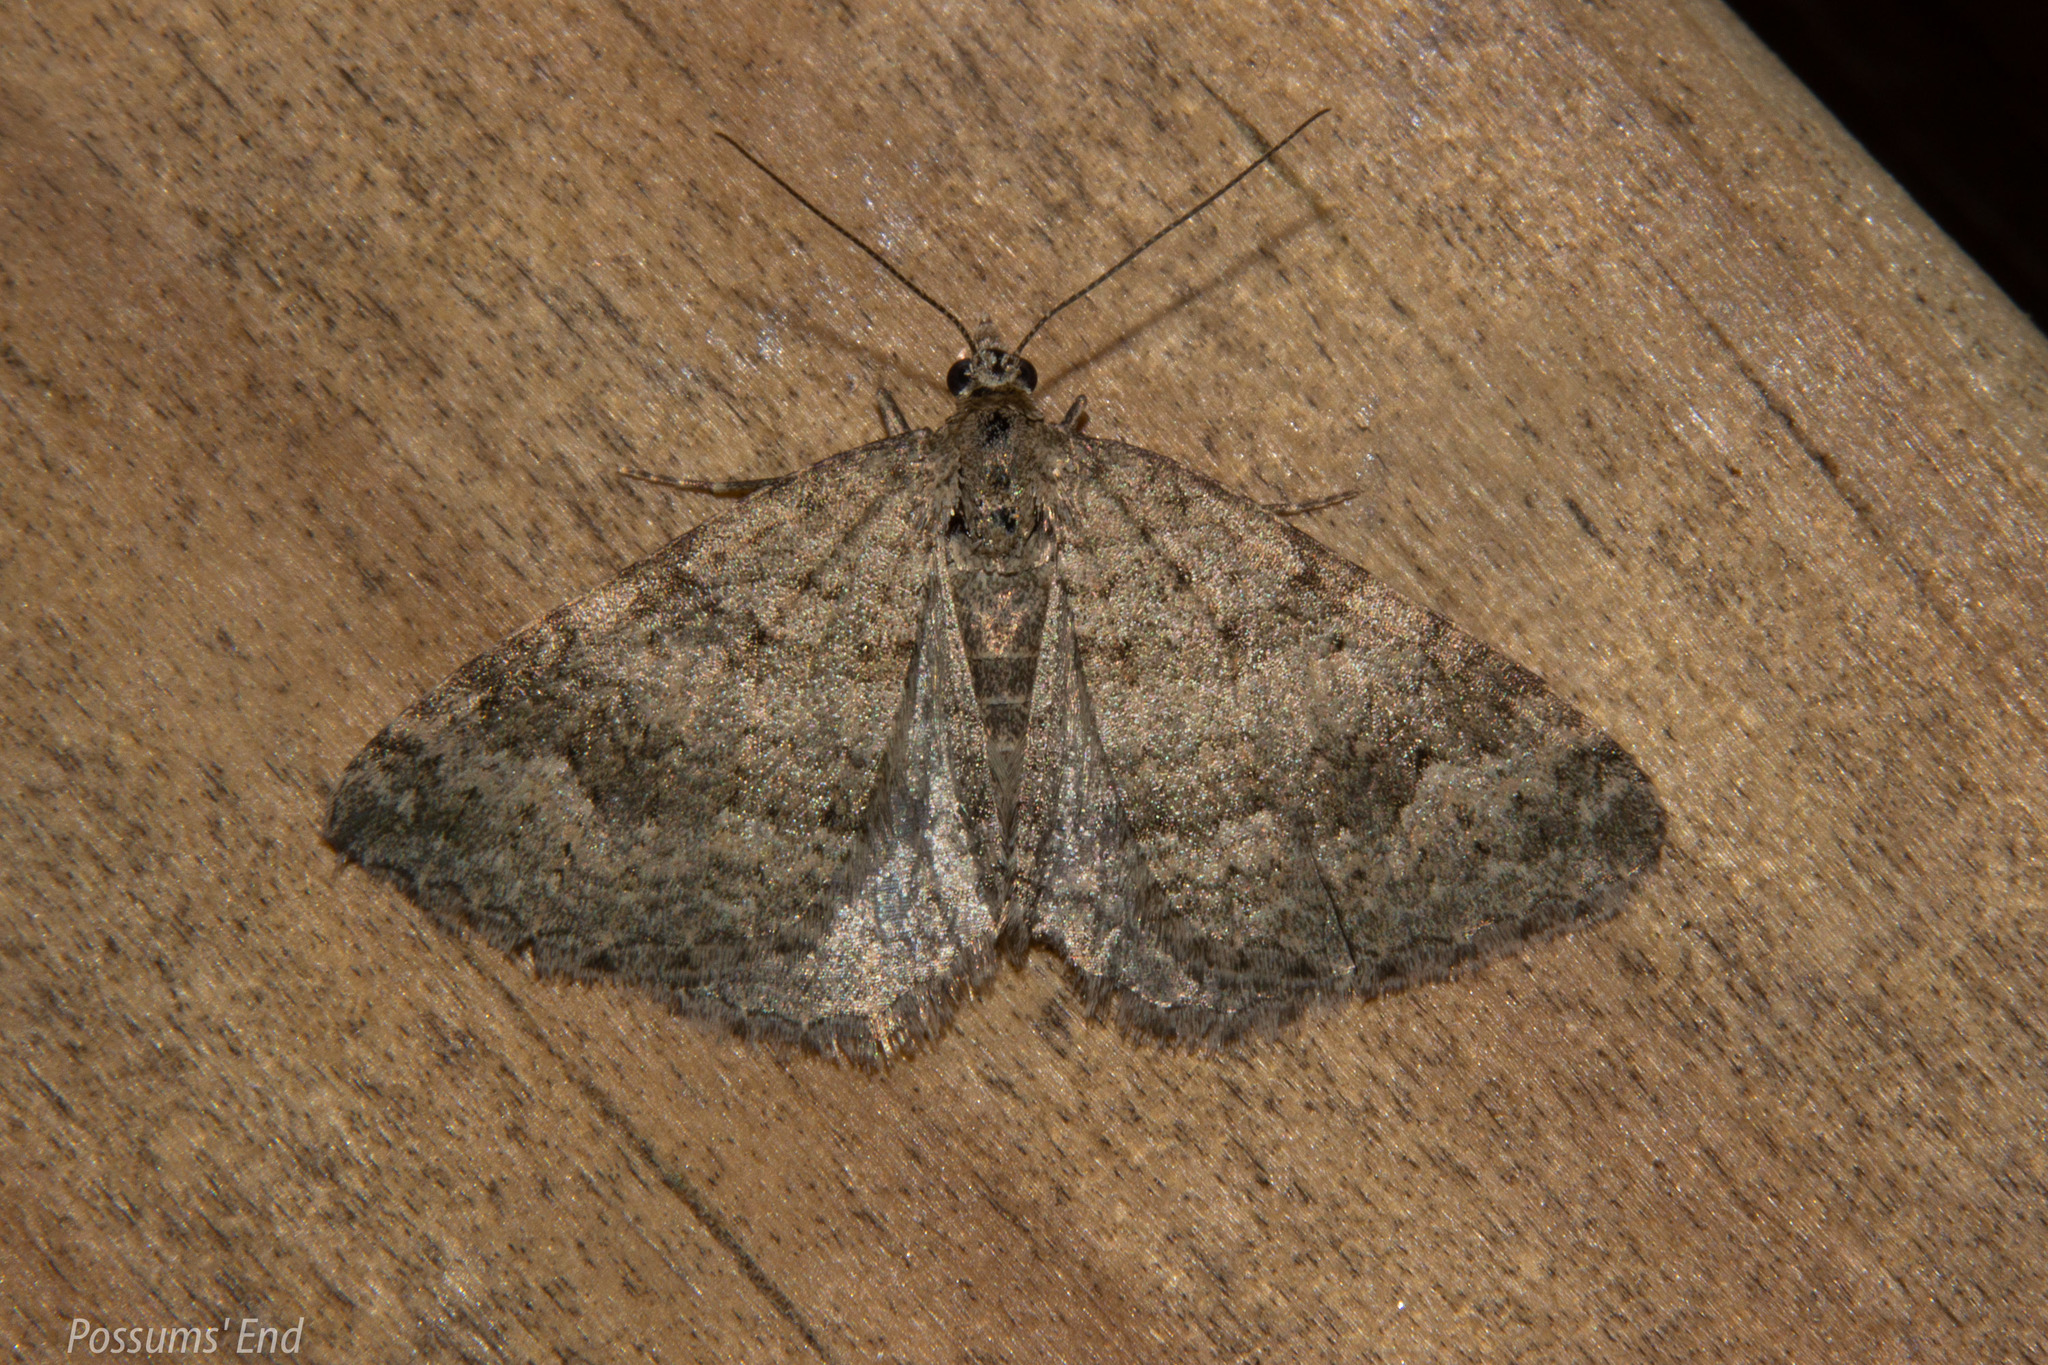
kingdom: Animalia
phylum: Arthropoda
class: Insecta
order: Lepidoptera
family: Geometridae
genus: Helastia
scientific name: Helastia corcularia
